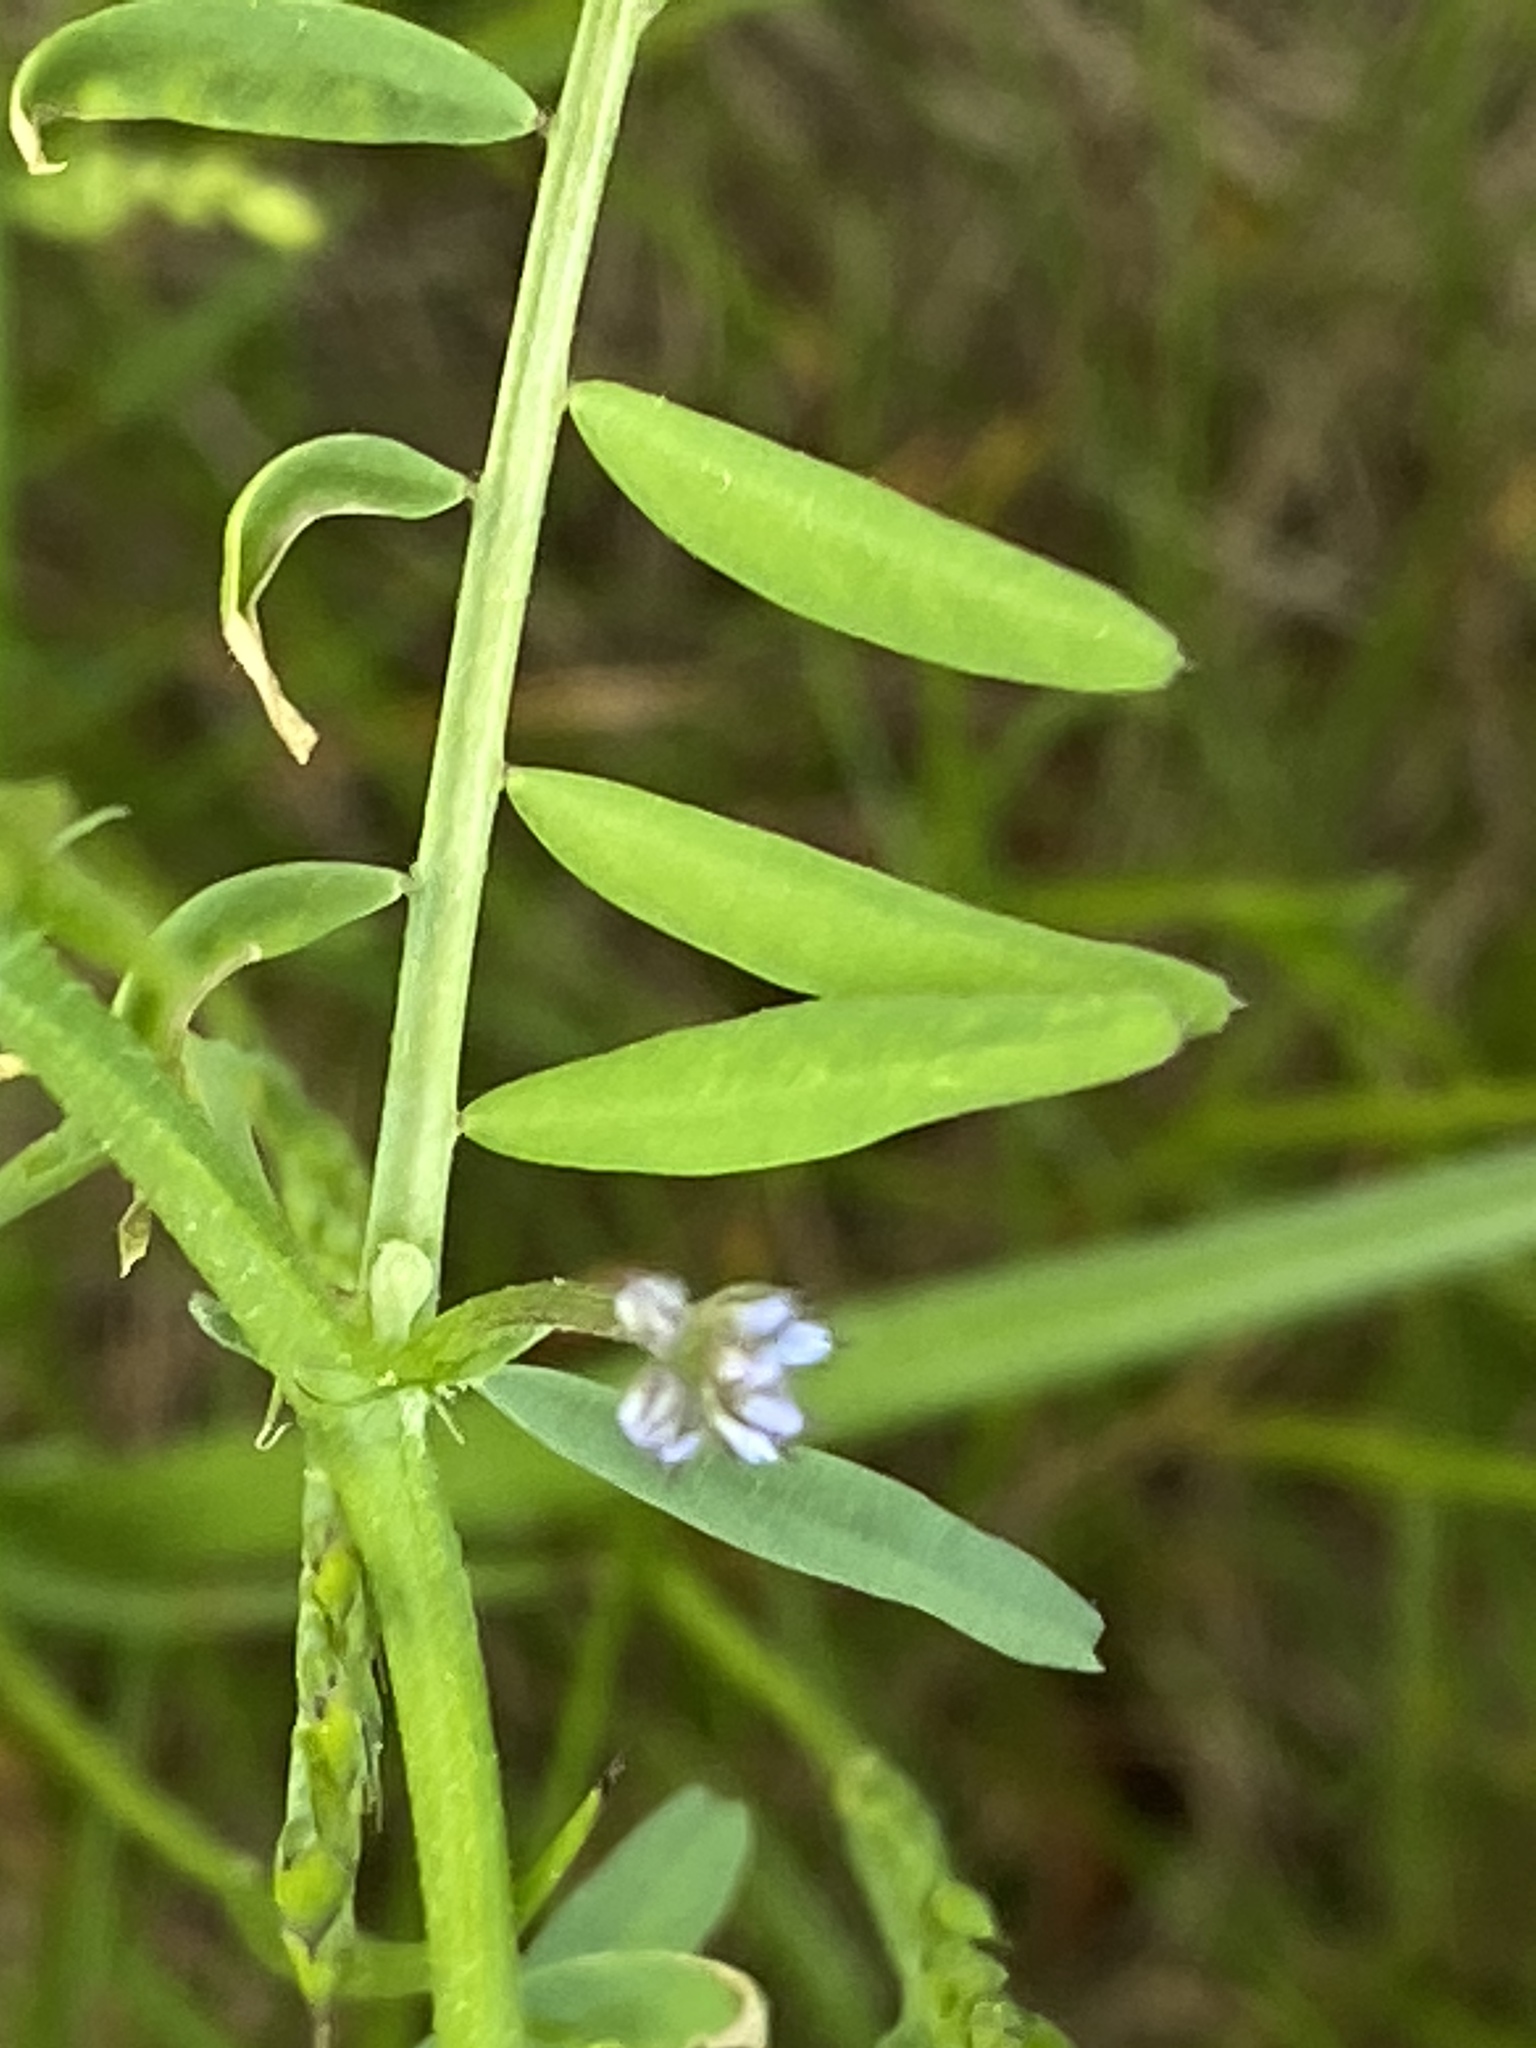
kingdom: Plantae
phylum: Tracheophyta
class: Magnoliopsida
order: Fabales
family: Fabaceae
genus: Vicia
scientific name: Vicia tetrasperma
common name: Smooth tare
